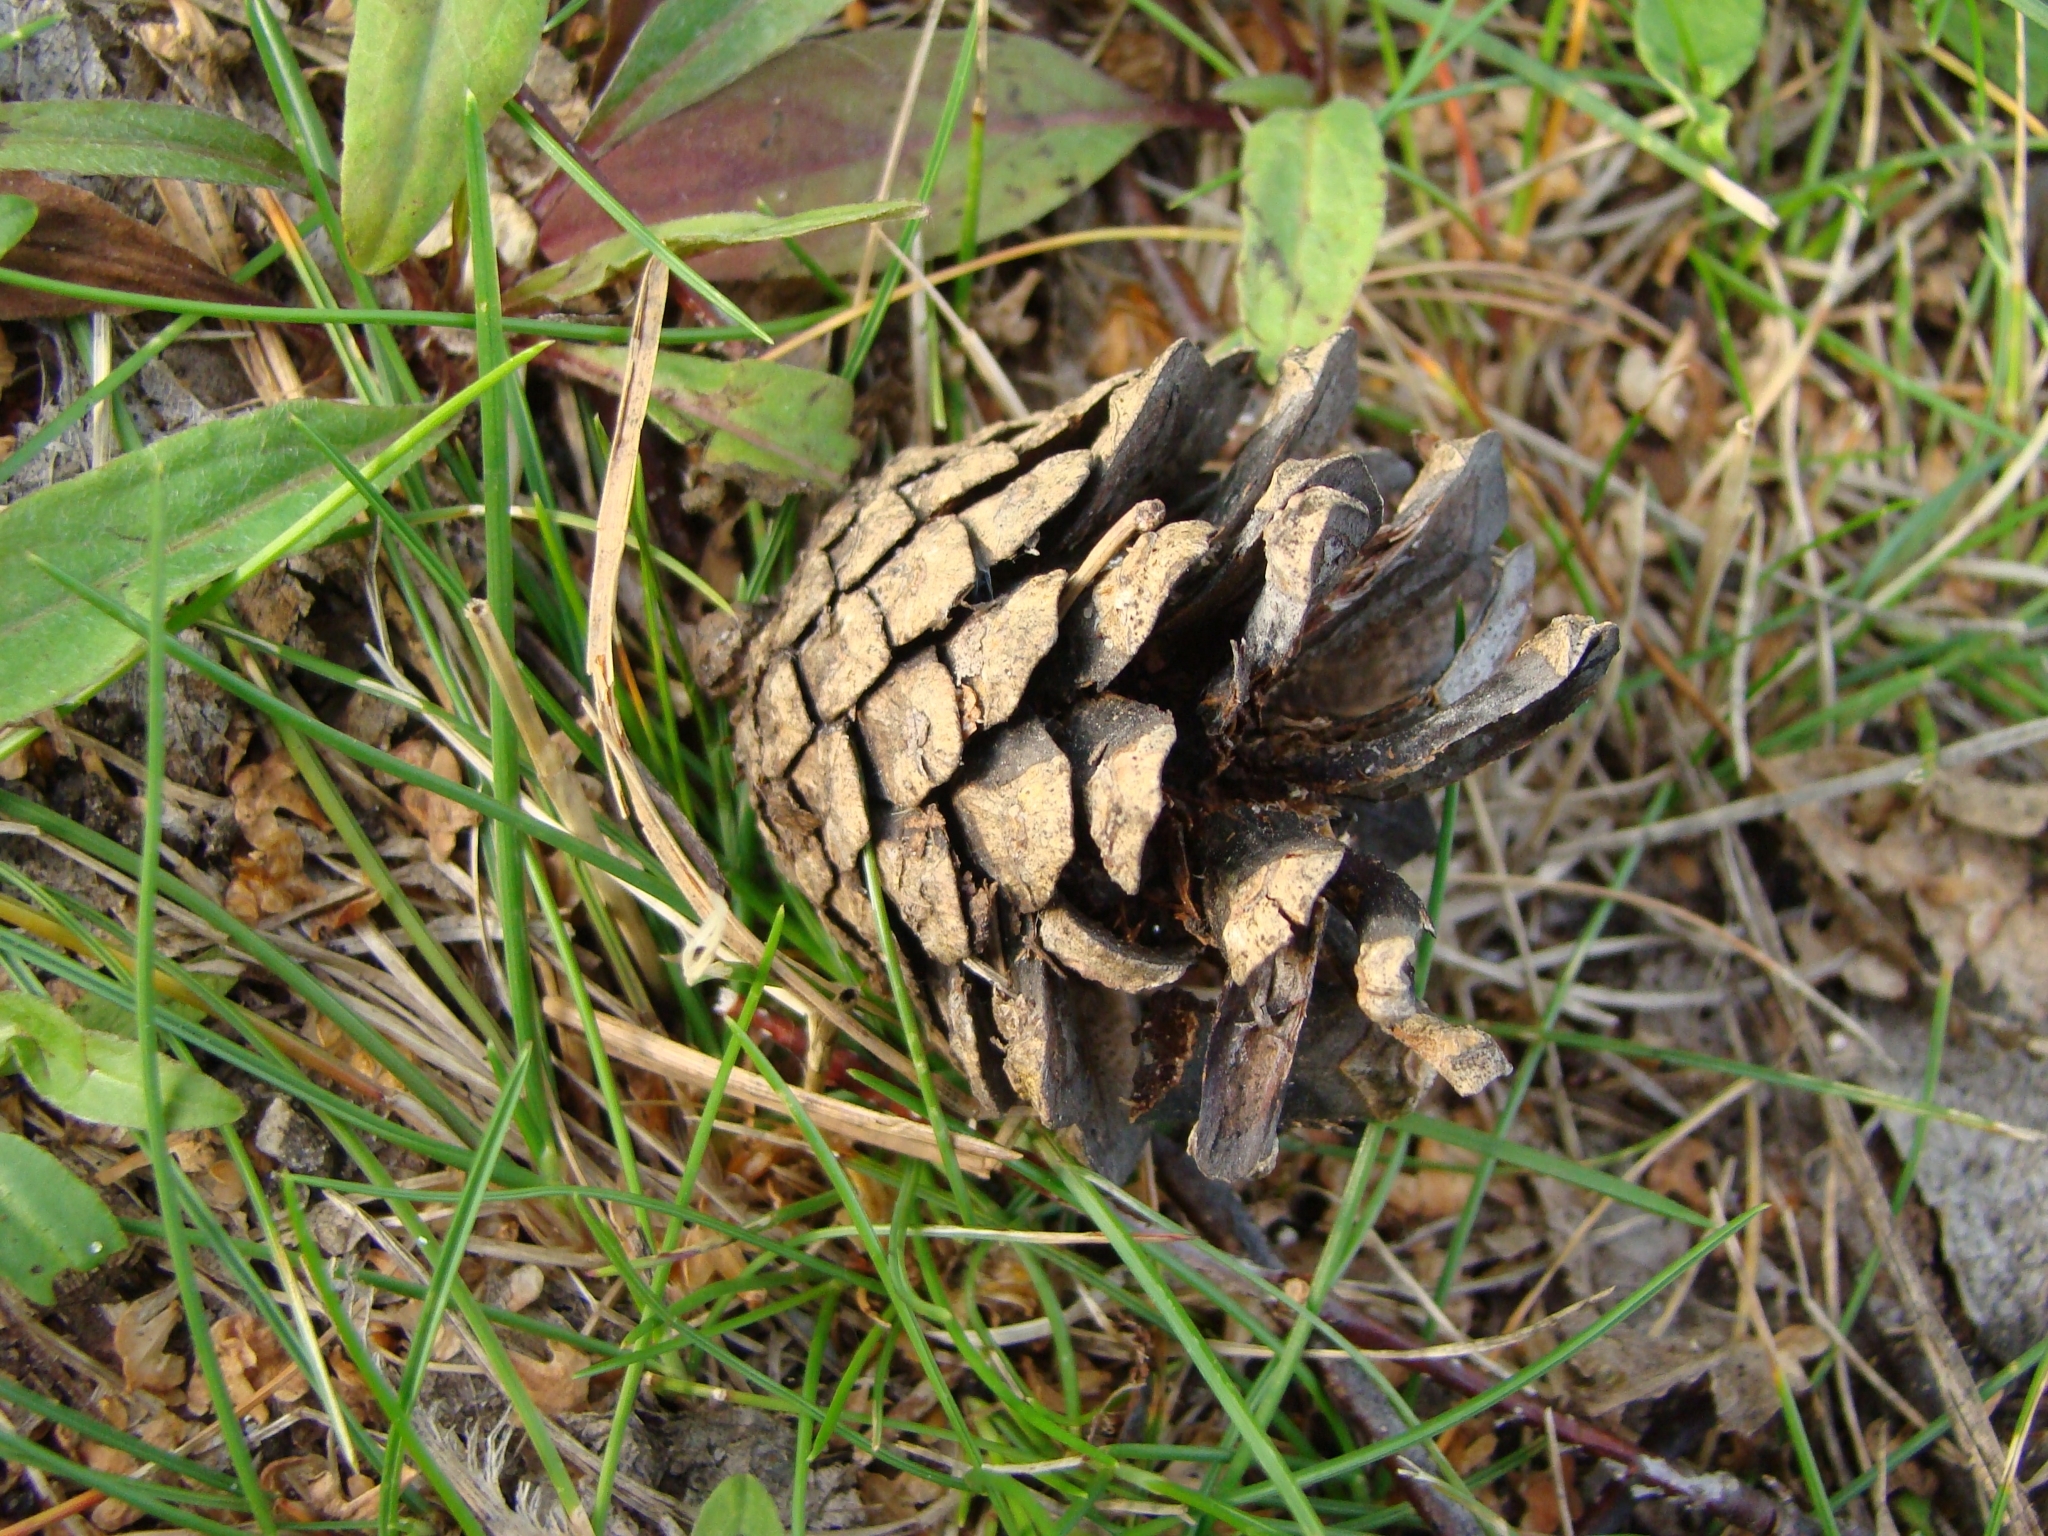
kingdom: Plantae
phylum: Tracheophyta
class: Pinopsida
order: Pinales
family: Pinaceae
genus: Pinus
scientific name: Pinus sylvestris
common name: Scots pine
